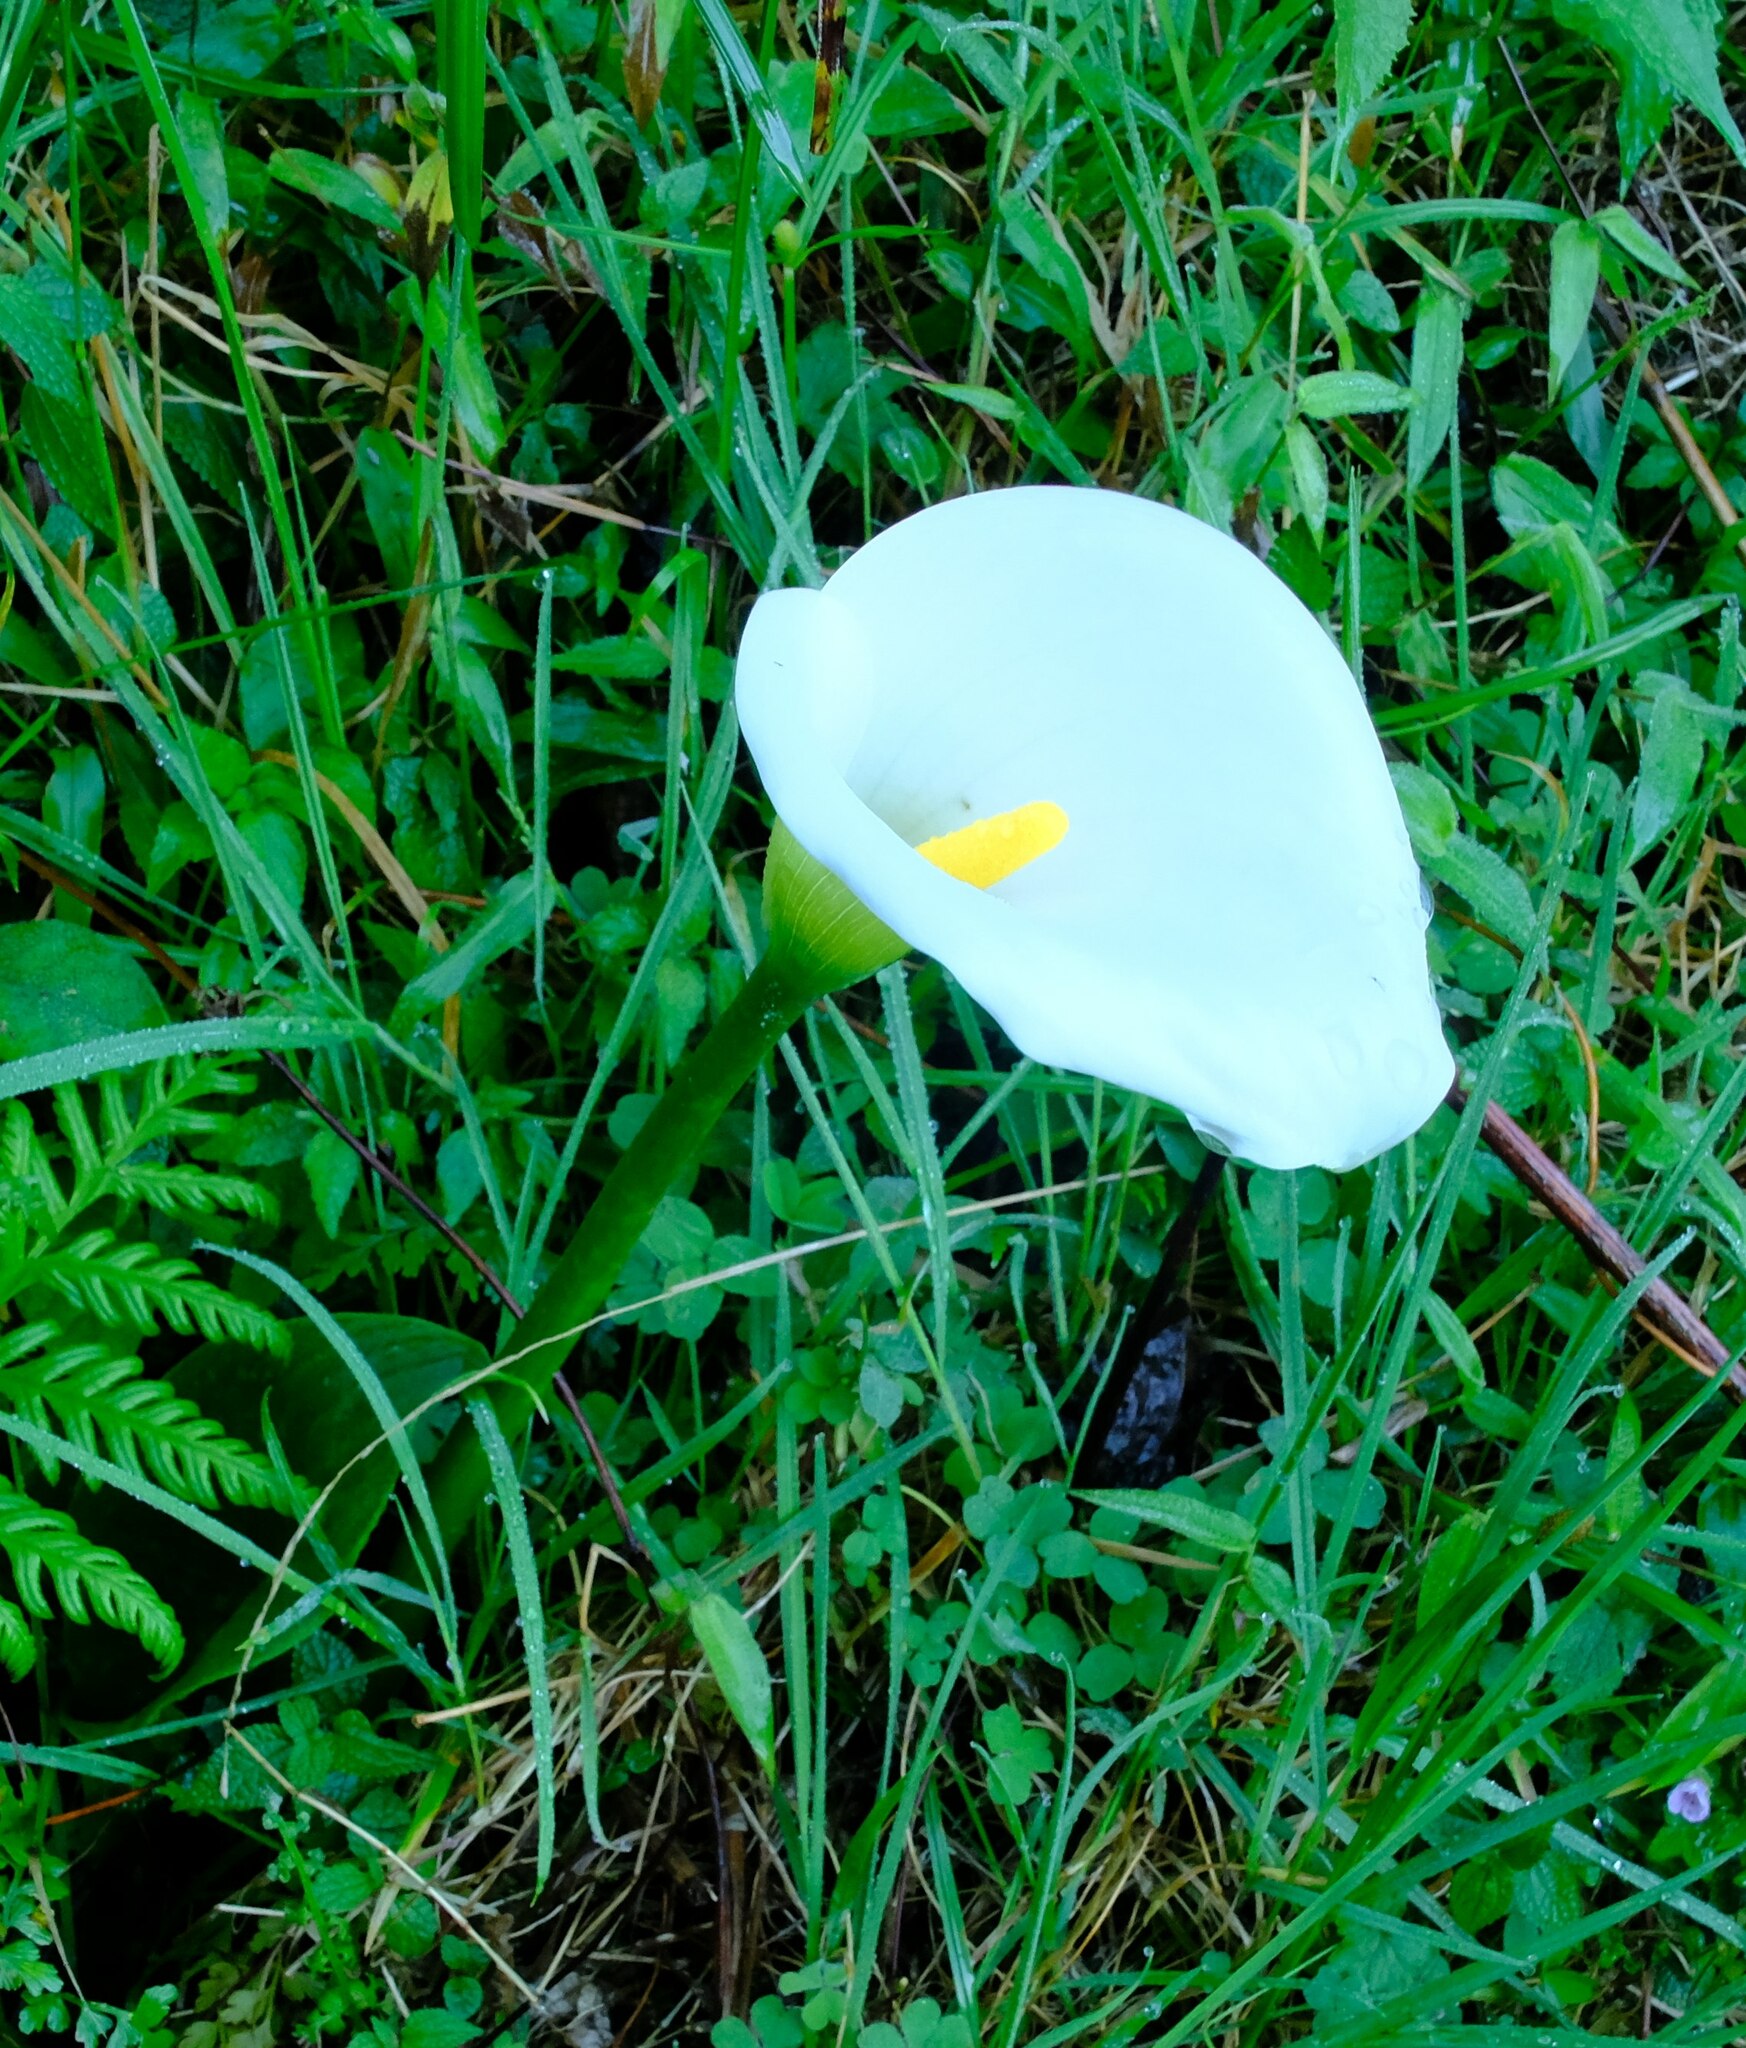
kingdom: Plantae
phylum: Tracheophyta
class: Liliopsida
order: Alismatales
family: Araceae
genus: Zantedeschia
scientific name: Zantedeschia aethiopica
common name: Altar-lily
